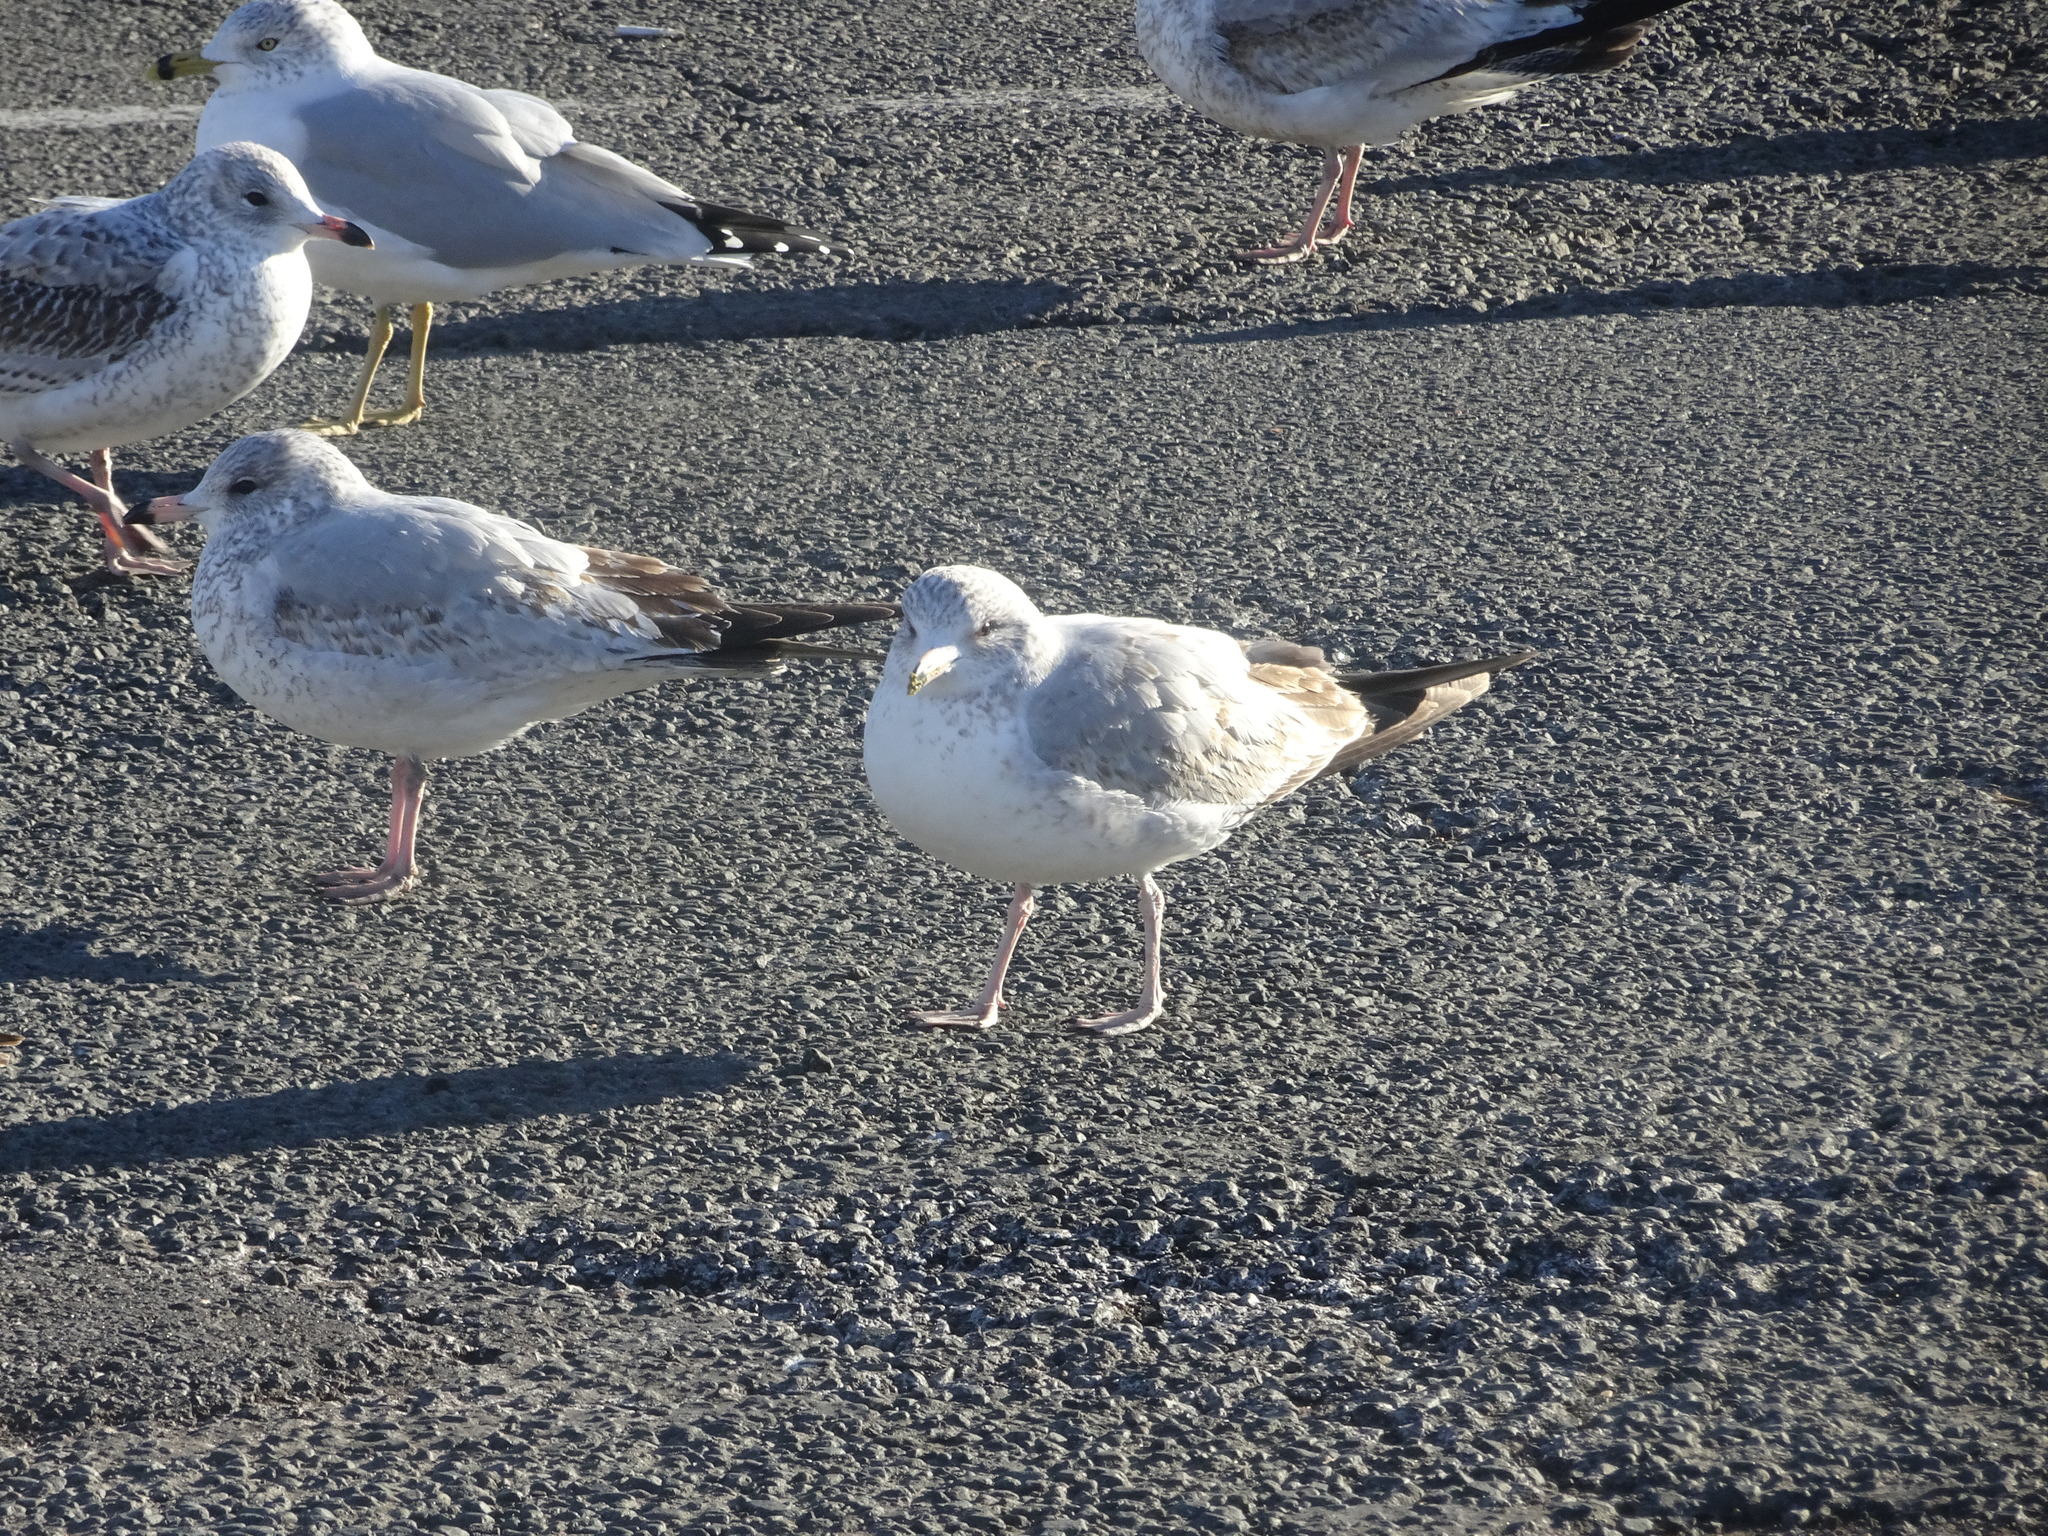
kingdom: Animalia
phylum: Chordata
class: Aves
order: Charadriiformes
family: Laridae
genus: Larus
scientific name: Larus delawarensis
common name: Ring-billed gull
